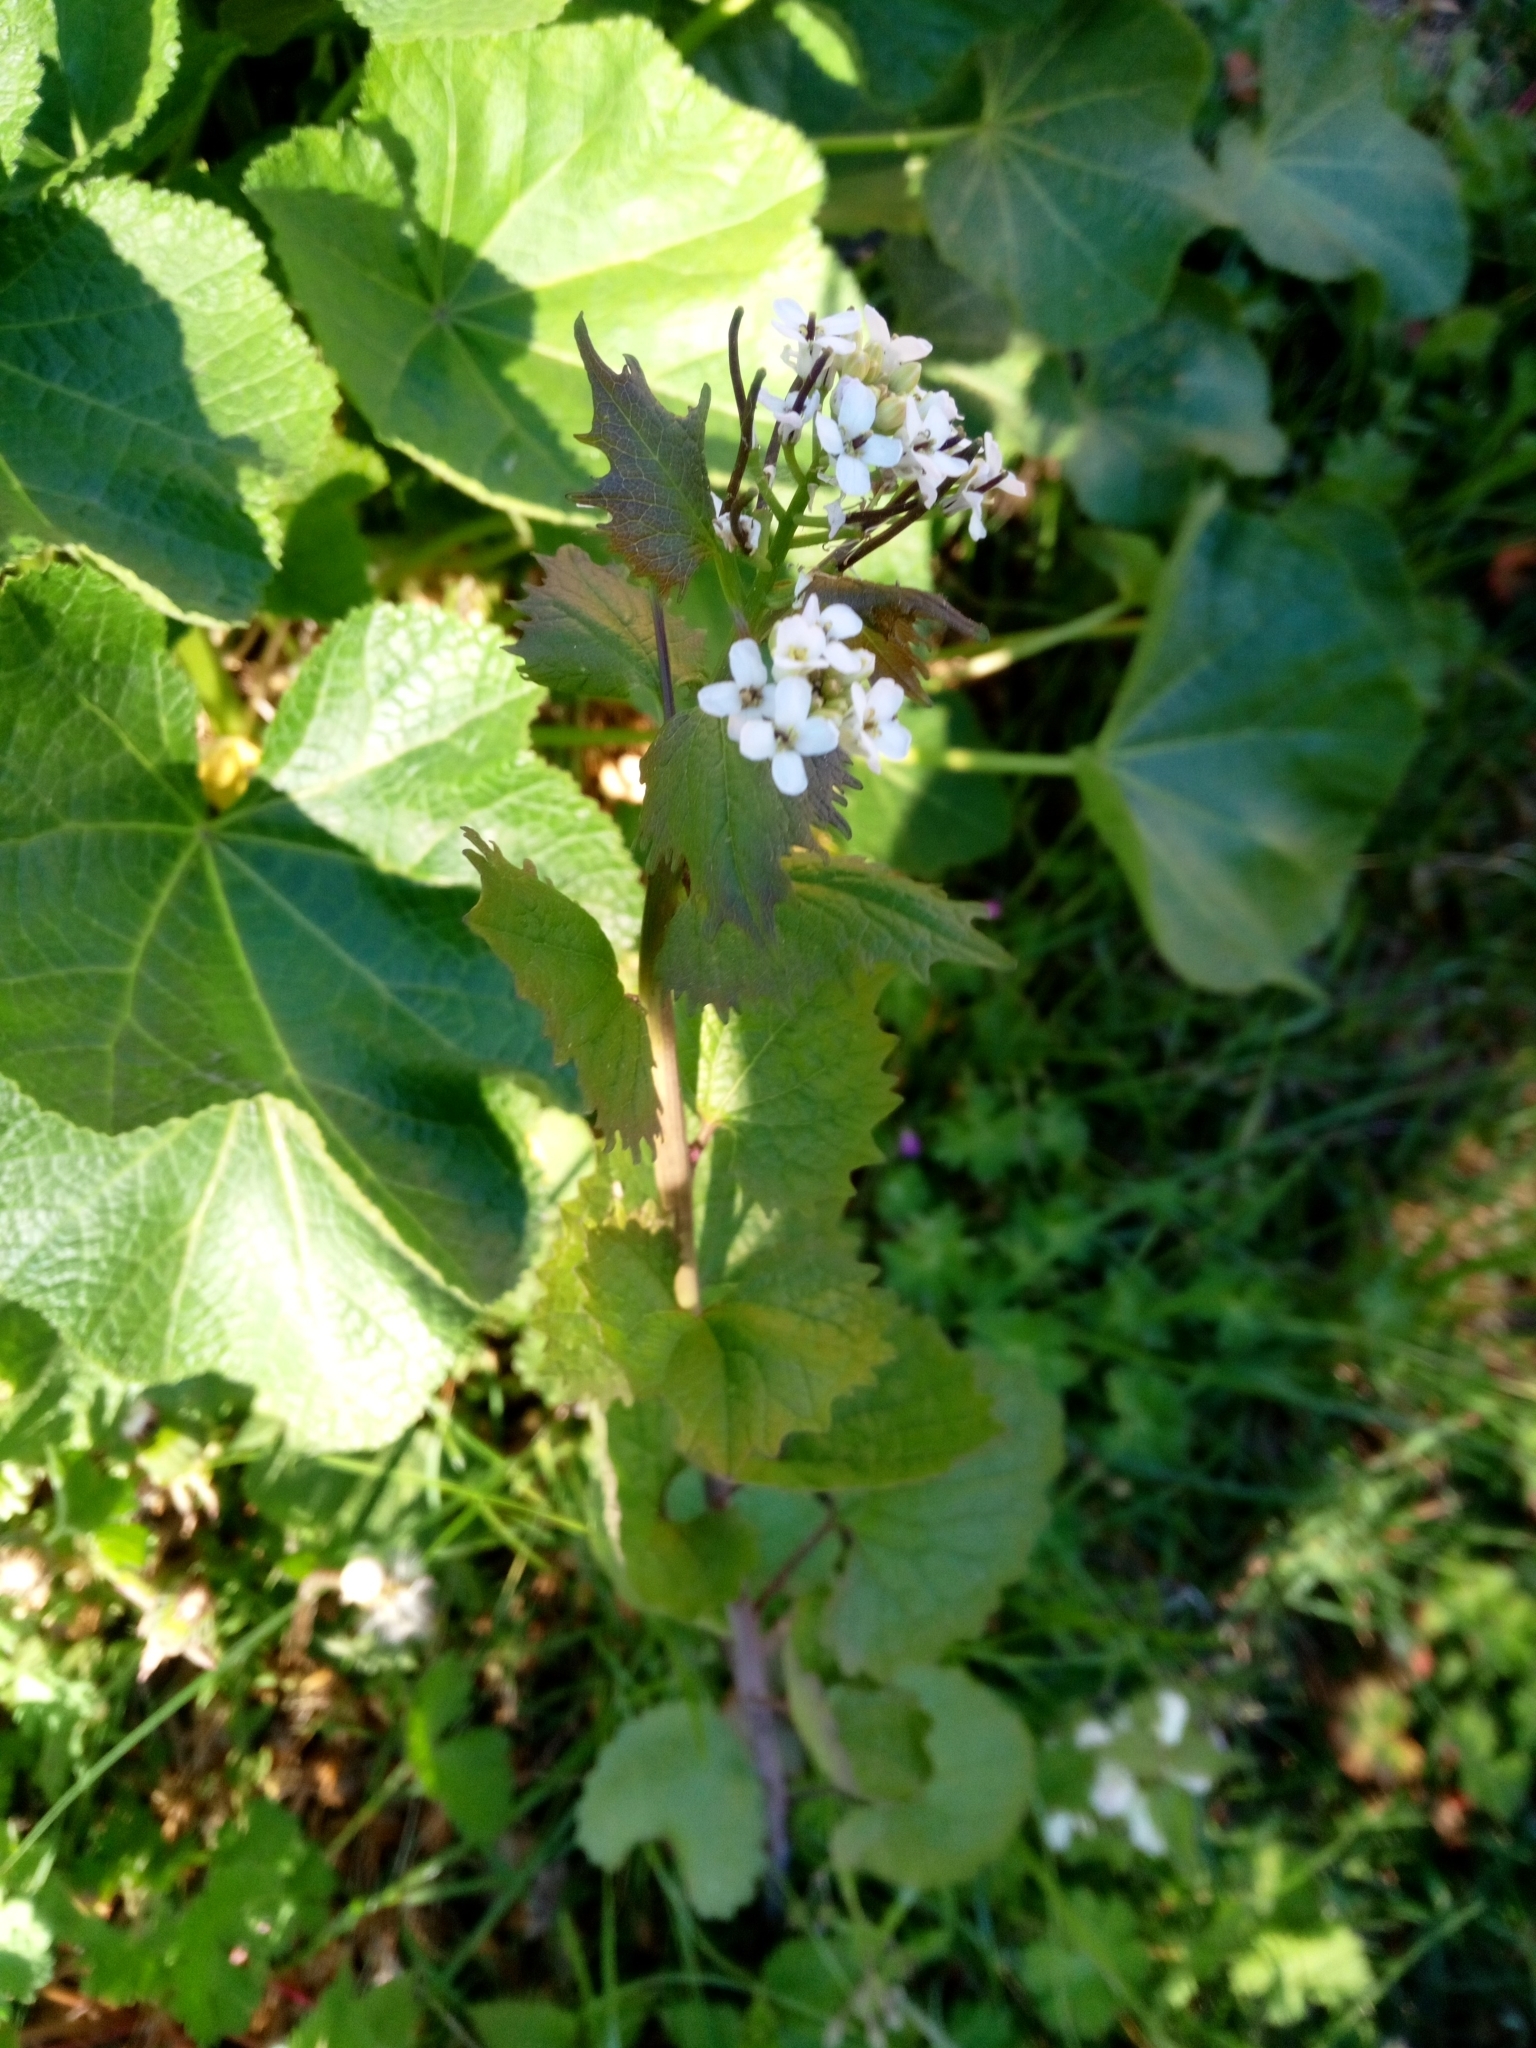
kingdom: Plantae
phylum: Tracheophyta
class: Magnoliopsida
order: Brassicales
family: Brassicaceae
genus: Alliaria
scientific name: Alliaria petiolata
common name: Garlic mustard
